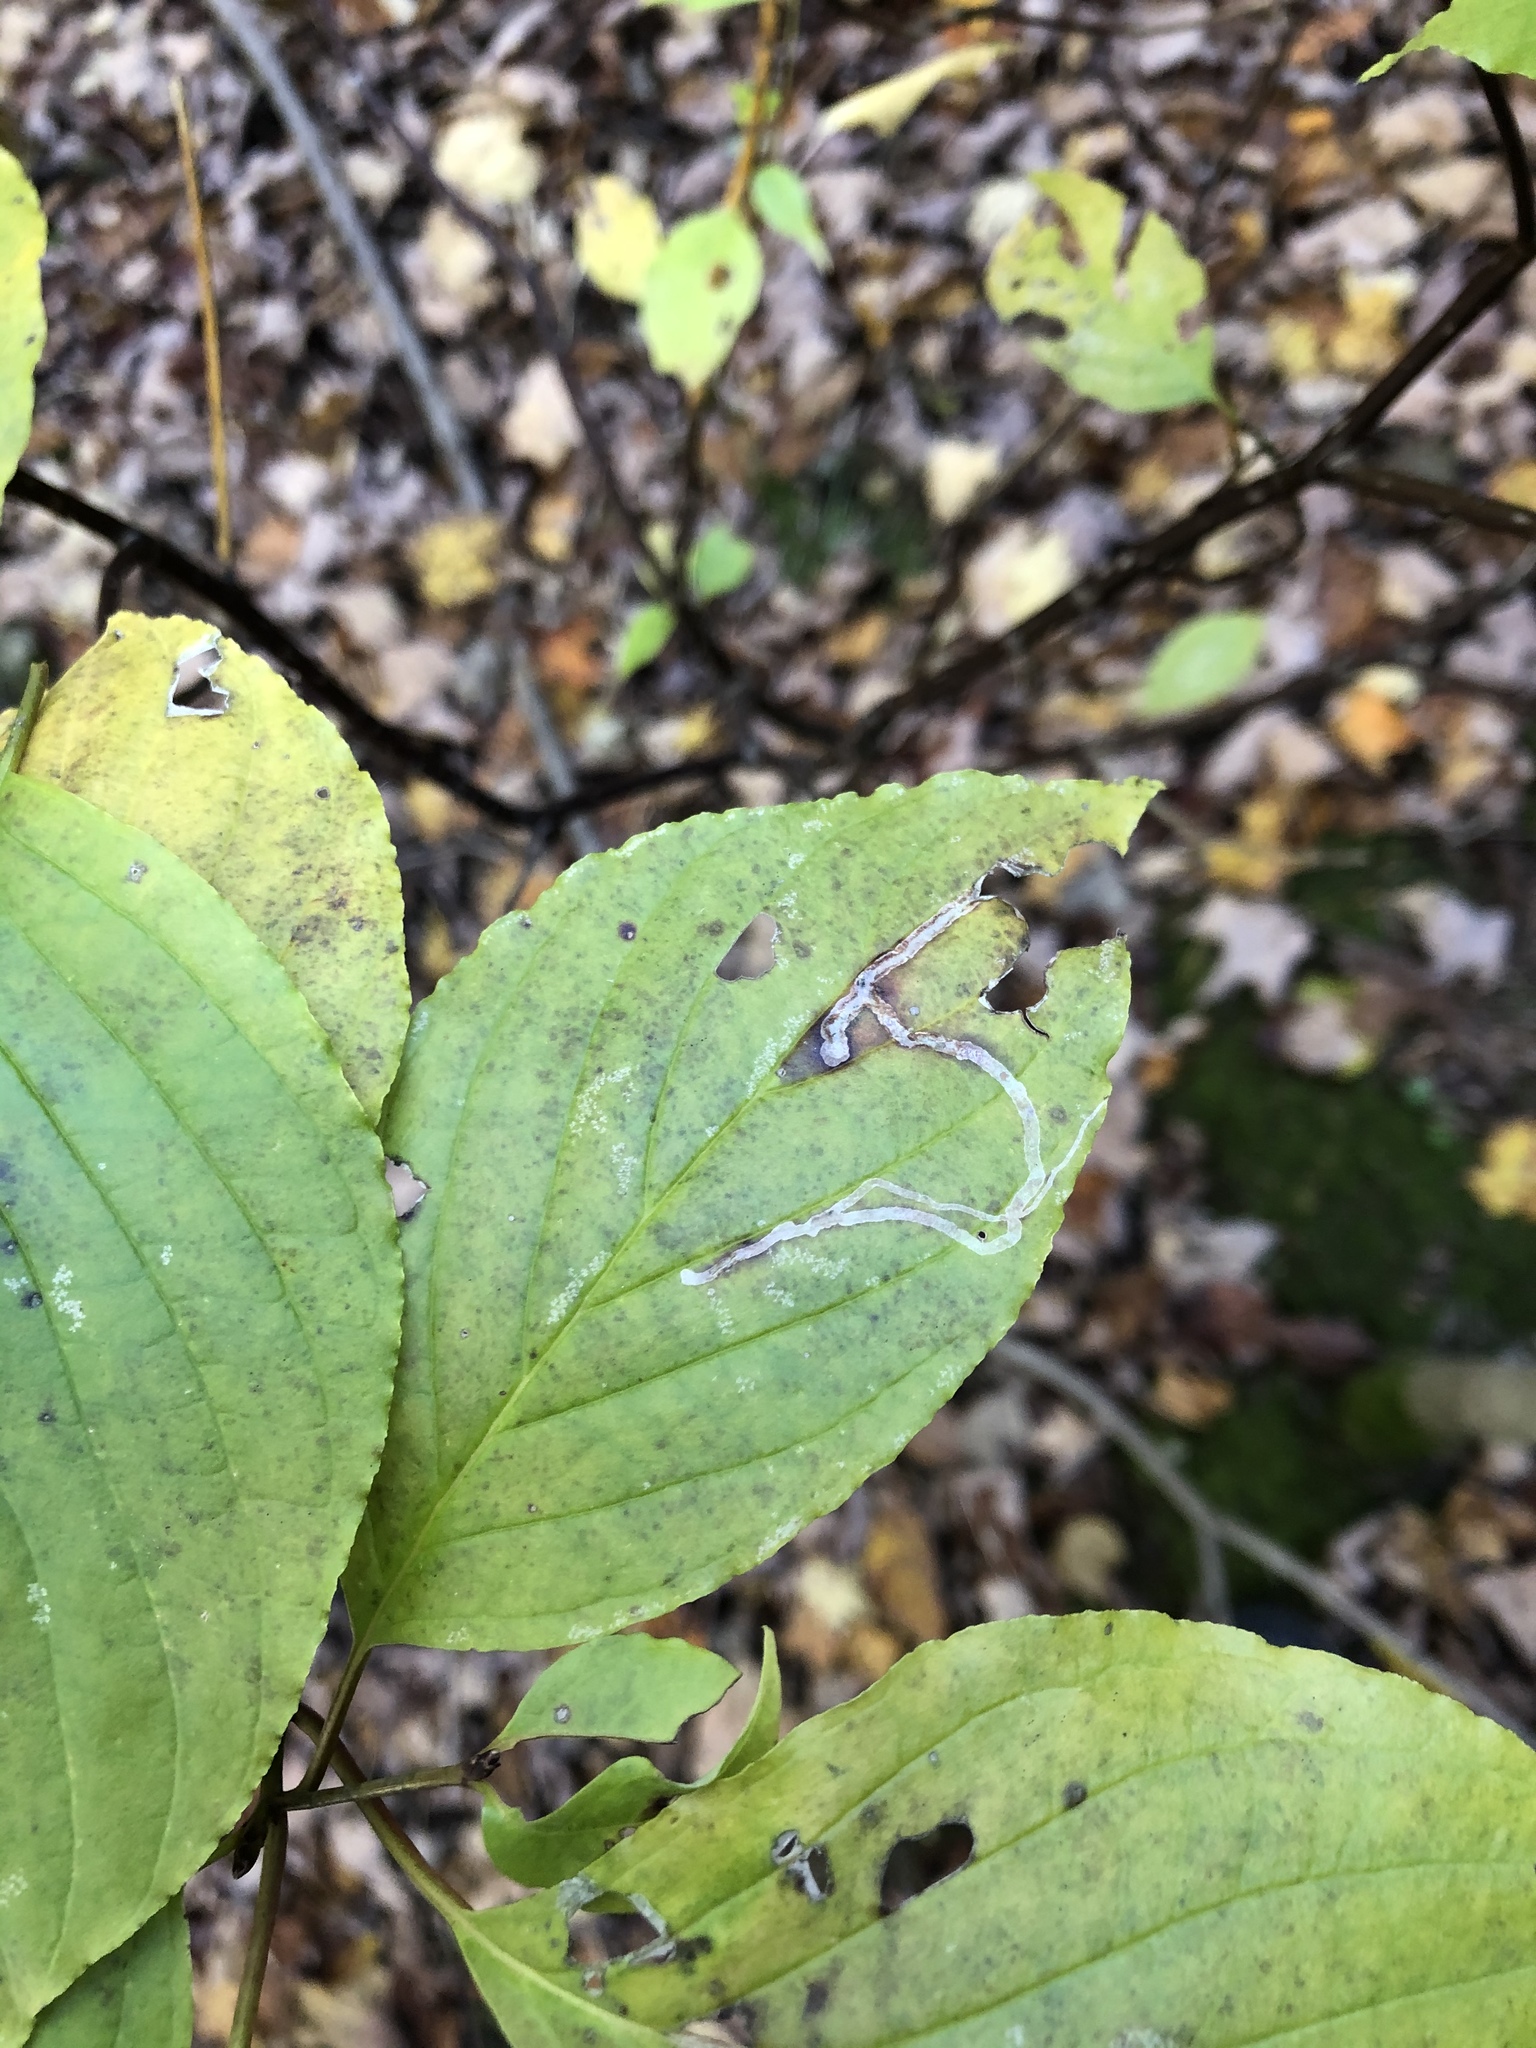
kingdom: Animalia
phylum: Arthropoda
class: Insecta
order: Diptera
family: Agromyzidae
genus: Phytomyza
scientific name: Phytomyza agromyzina
